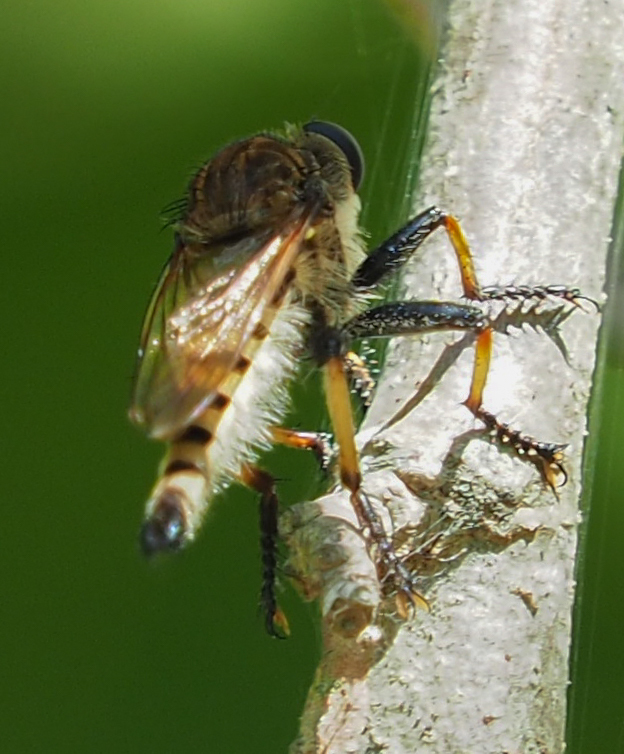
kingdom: Animalia
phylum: Arthropoda
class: Insecta
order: Diptera
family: Asilidae
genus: Promachus
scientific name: Promachus rufipes
